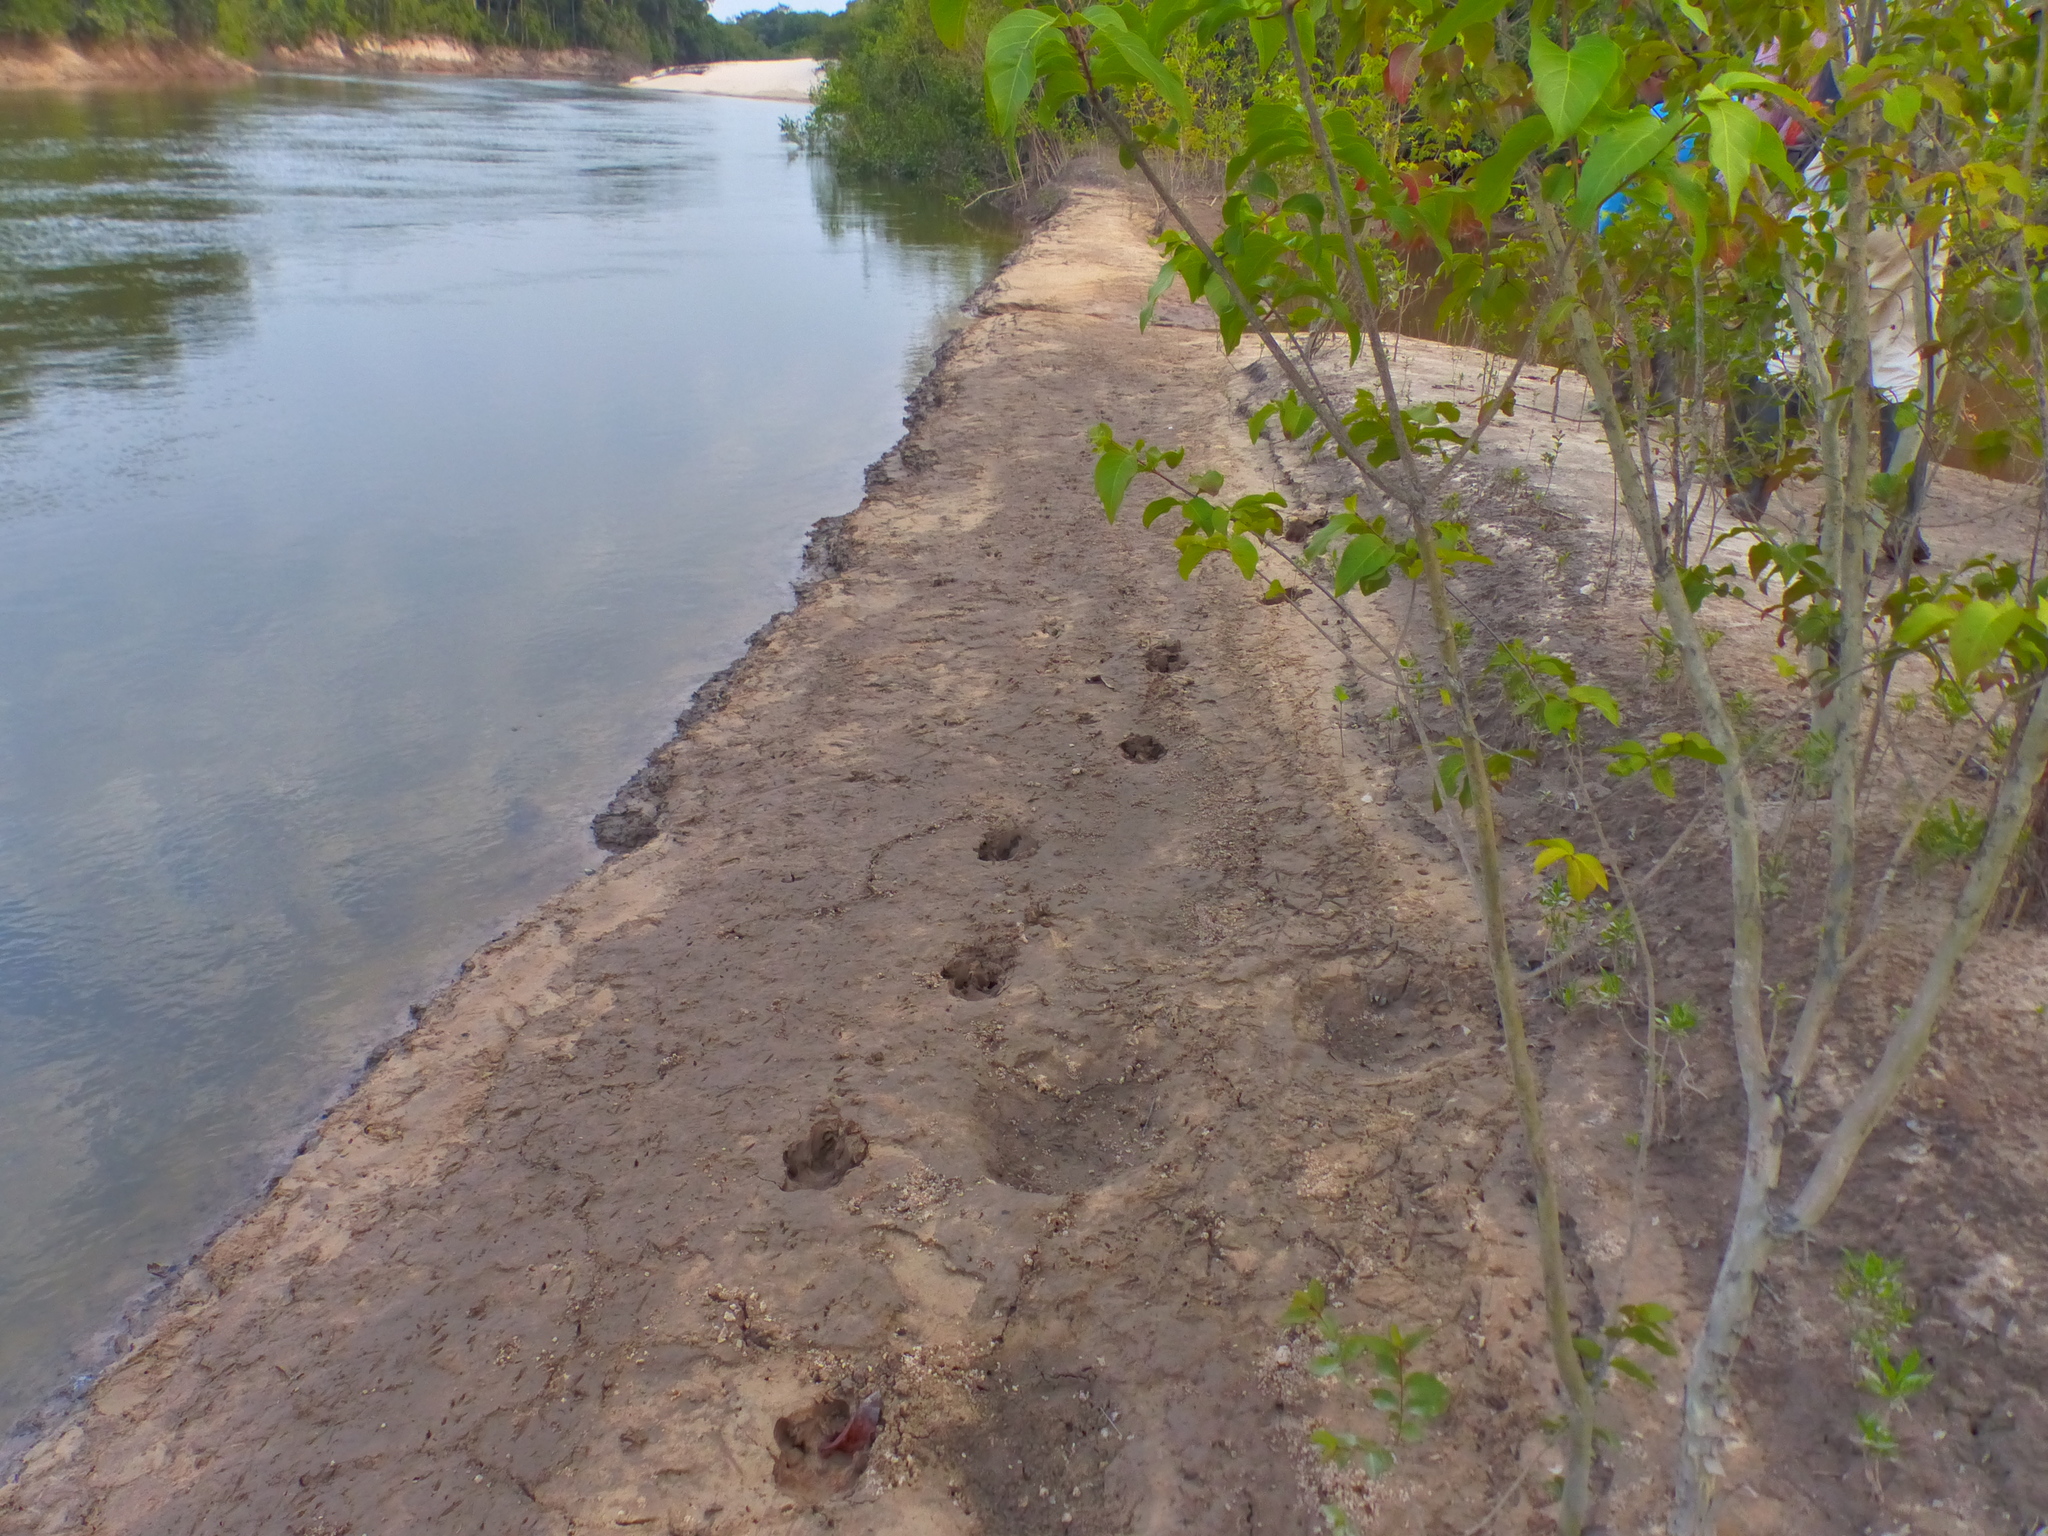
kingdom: Animalia
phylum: Chordata
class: Mammalia
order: Perissodactyla
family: Tapiridae
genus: Tapirus
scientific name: Tapirus terrestris
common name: Brazilian tapir
